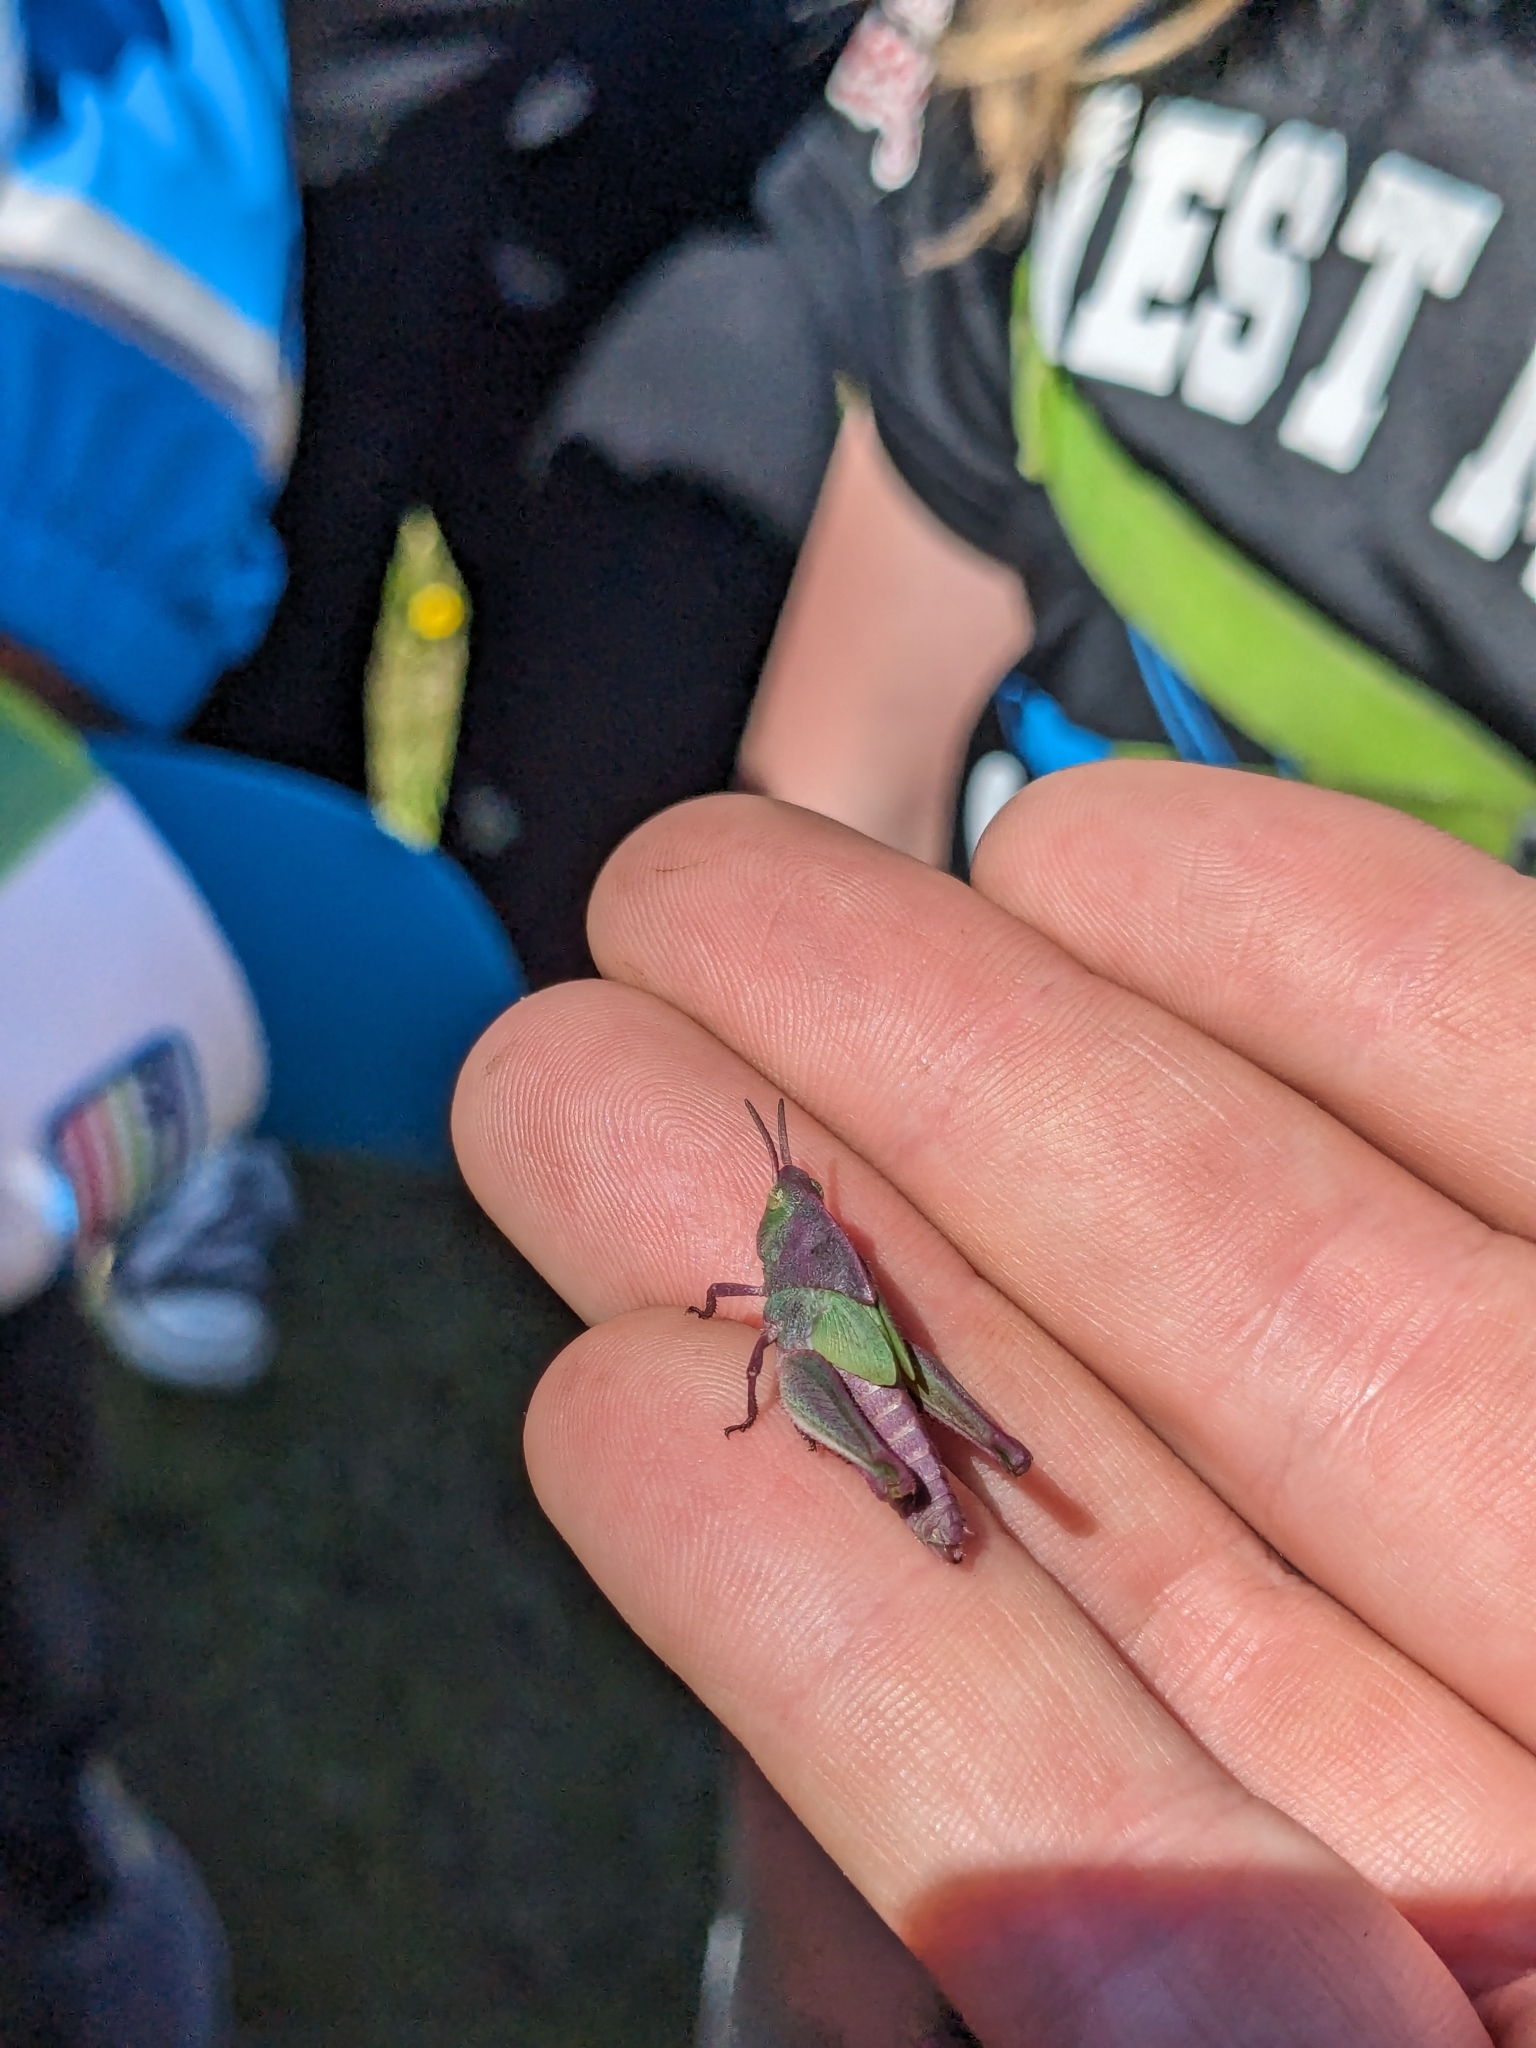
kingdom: Animalia
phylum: Arthropoda
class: Insecta
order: Orthoptera
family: Acrididae
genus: Chimarocephala
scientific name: Chimarocephala pacifica
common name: Painted meadow grasshopper
